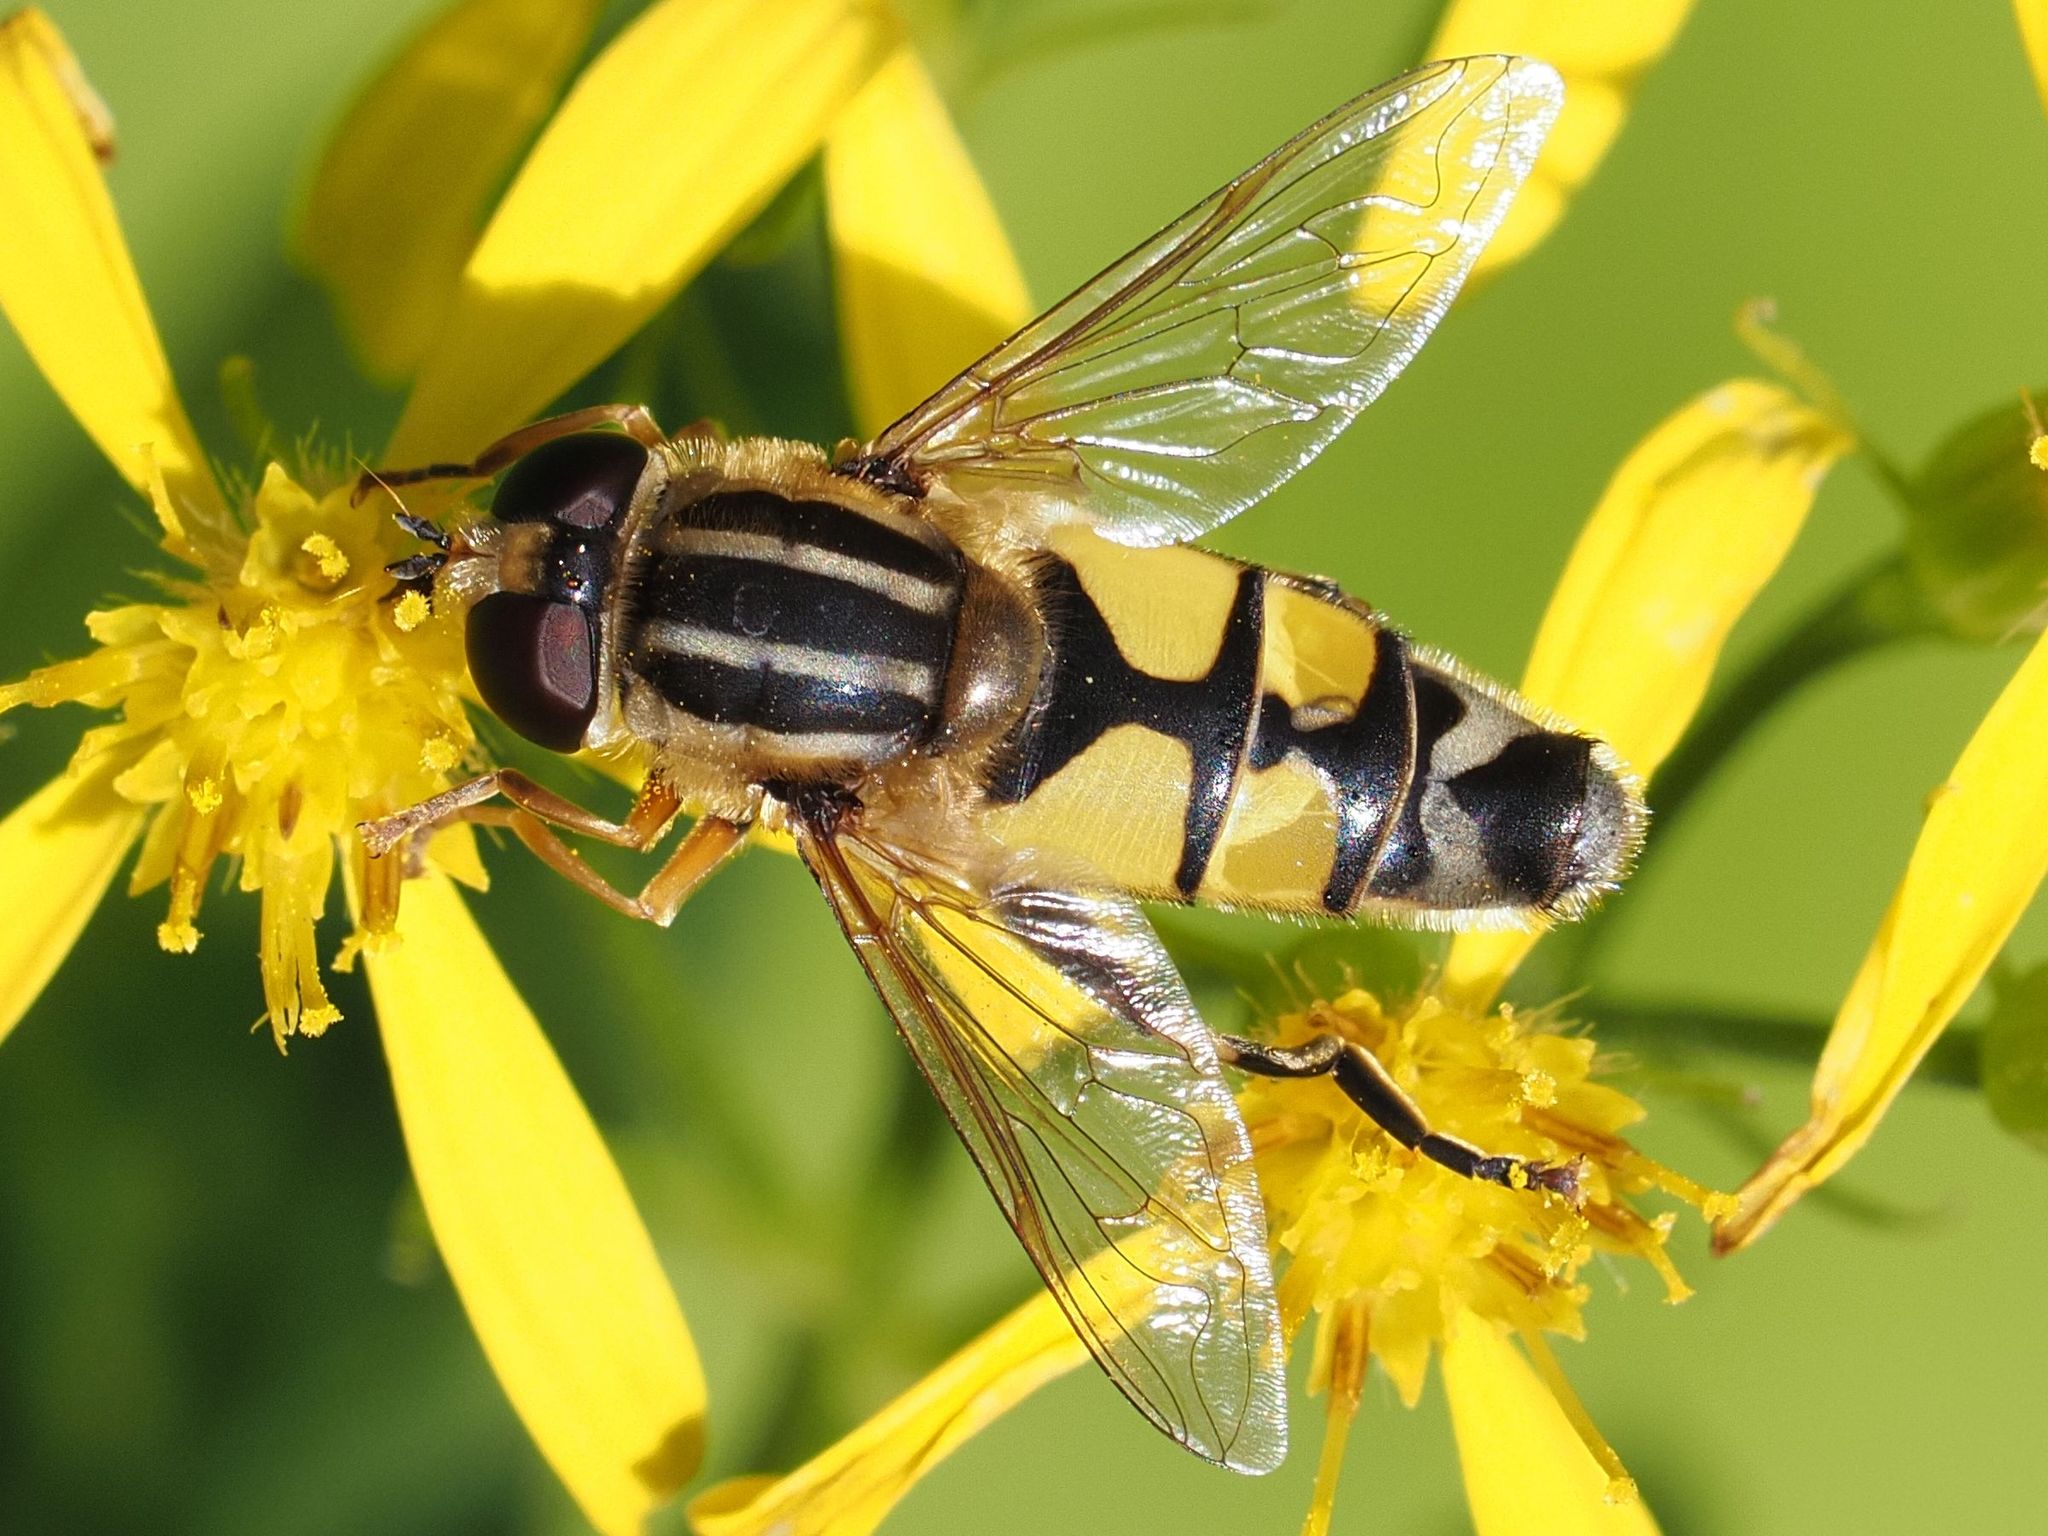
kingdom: Animalia
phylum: Arthropoda
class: Insecta
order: Diptera
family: Syrphidae
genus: Helophilus
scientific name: Helophilus trivittatus
